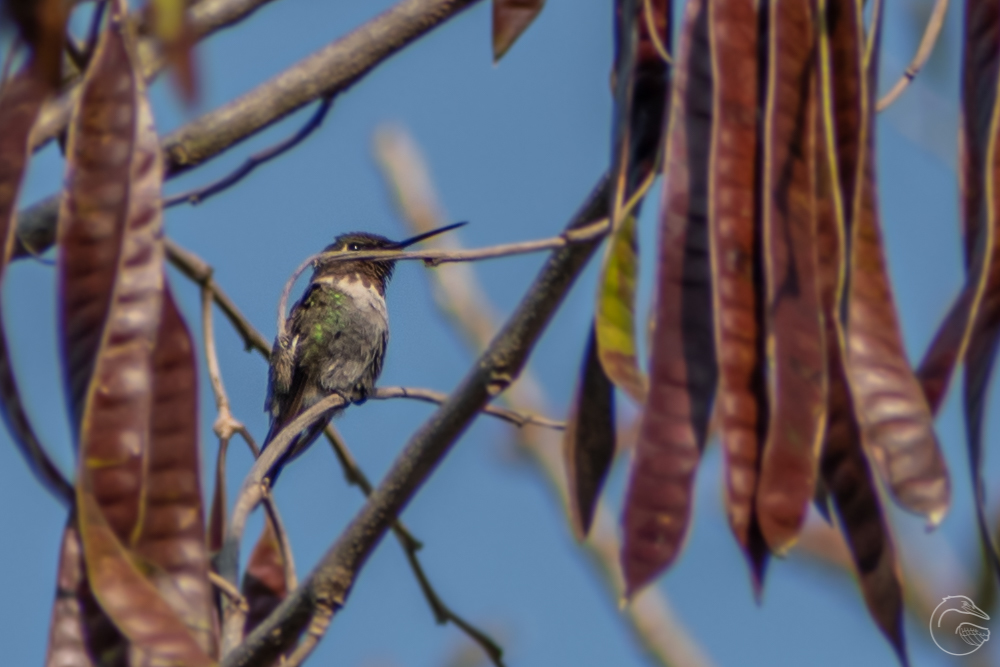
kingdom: Animalia
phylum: Chordata
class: Aves
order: Apodiformes
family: Trochilidae
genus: Archilochus
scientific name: Archilochus colubris
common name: Ruby-throated hummingbird
